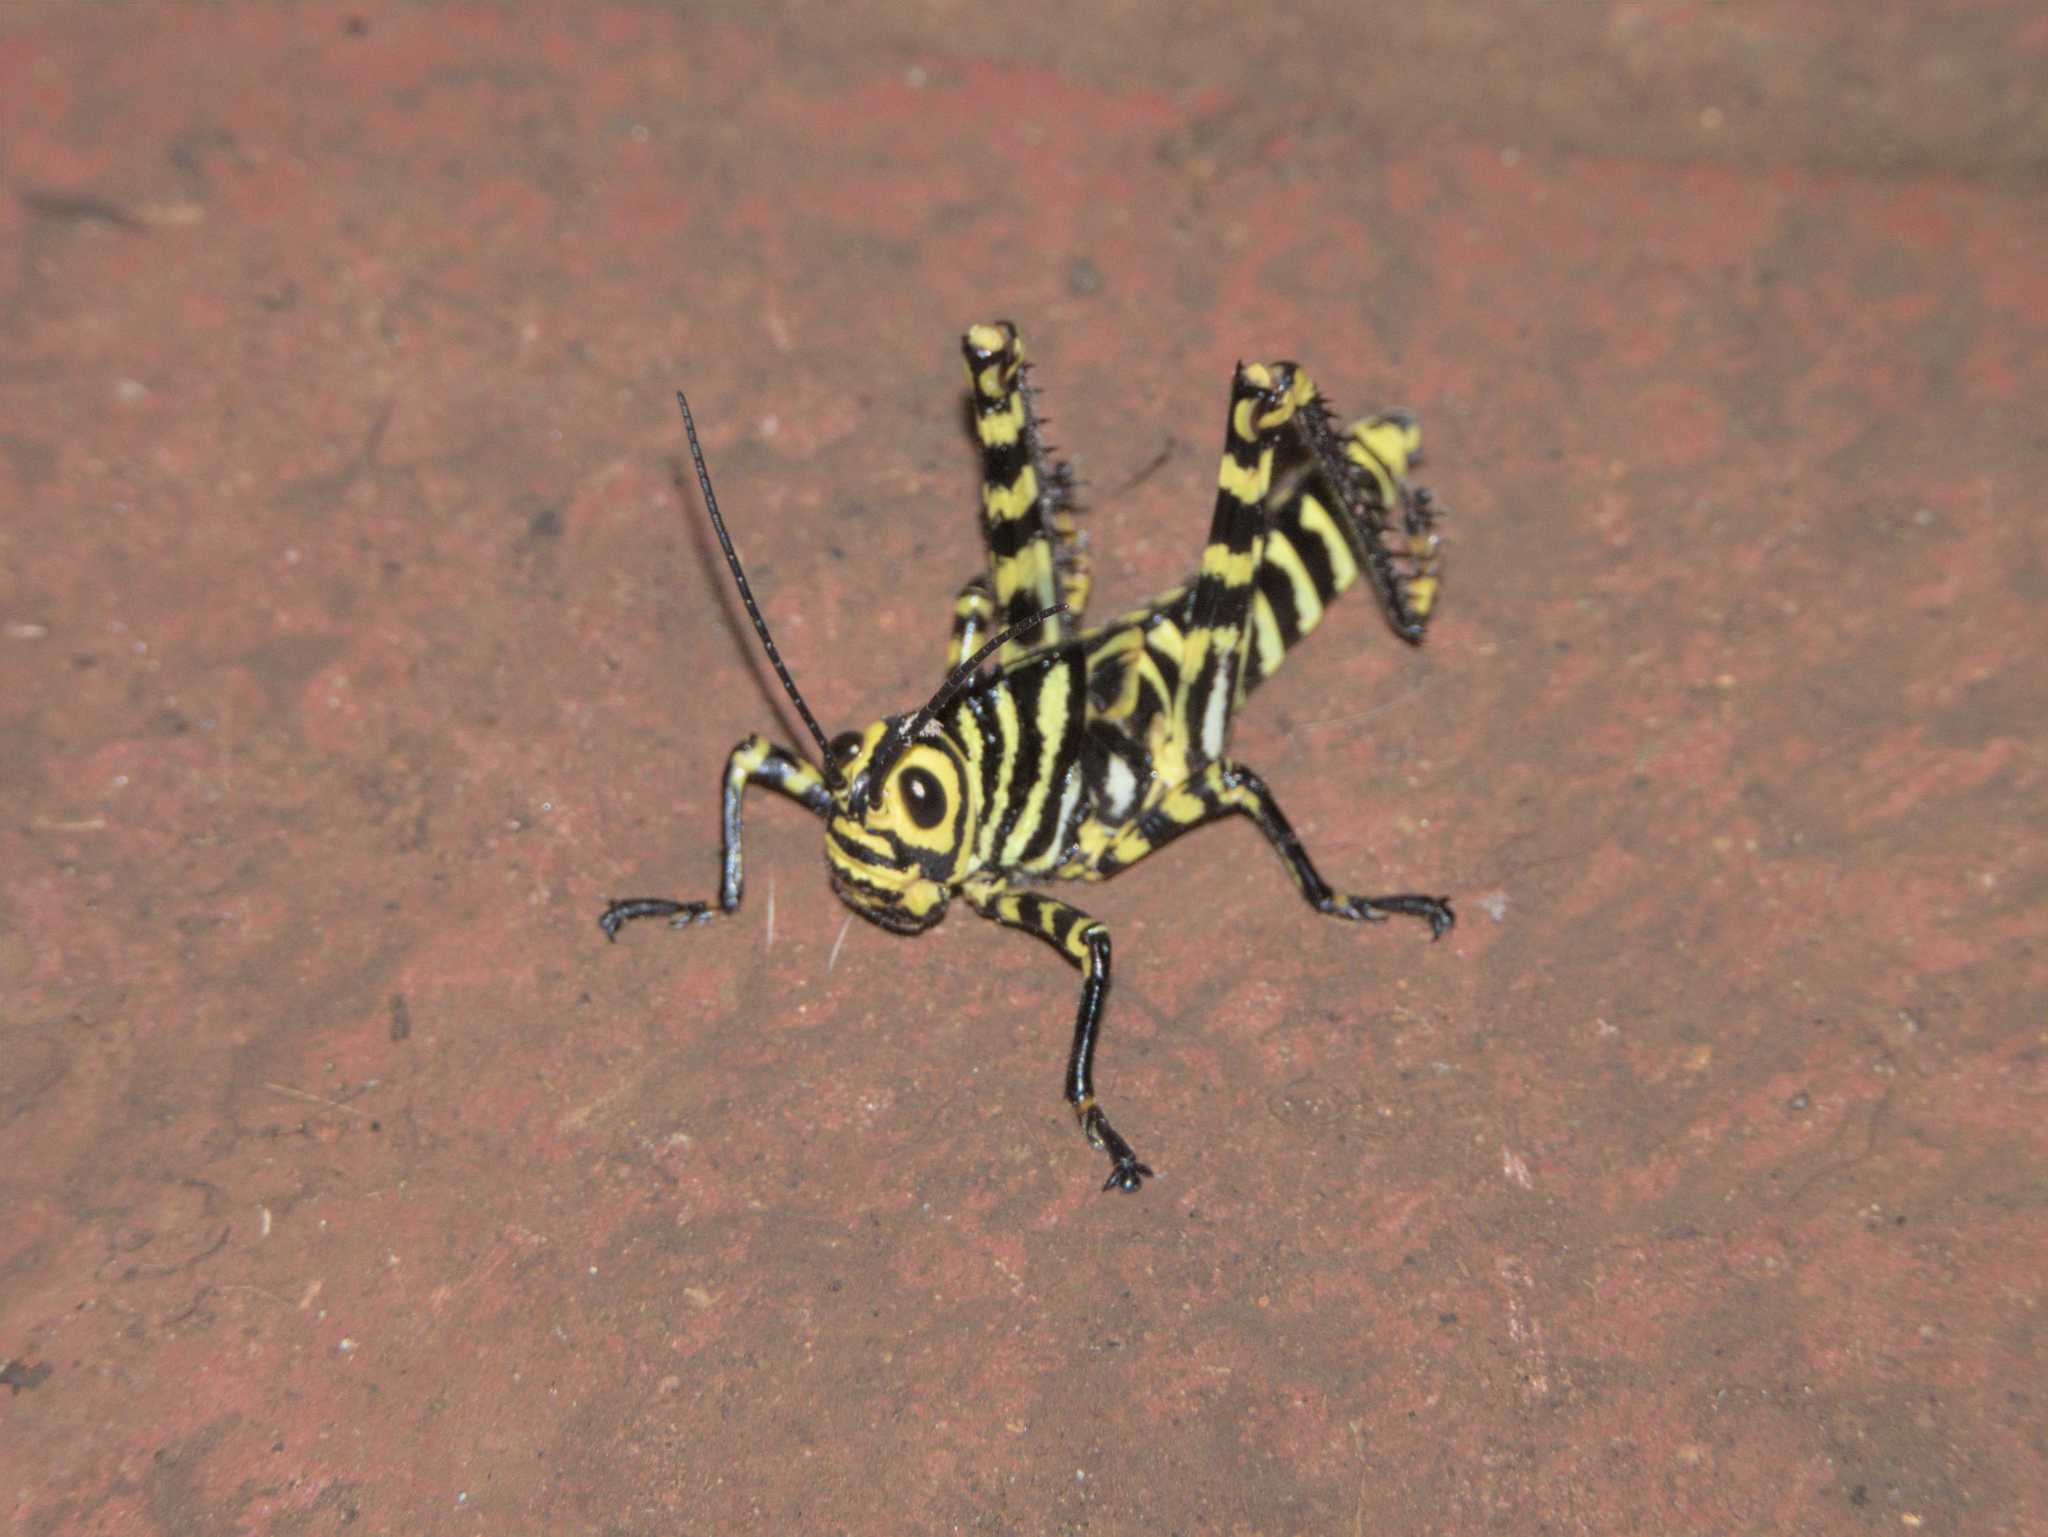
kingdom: Animalia
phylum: Arthropoda
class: Insecta
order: Orthoptera
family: Romaleidae
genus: Tropidacris
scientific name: Tropidacris cristata
